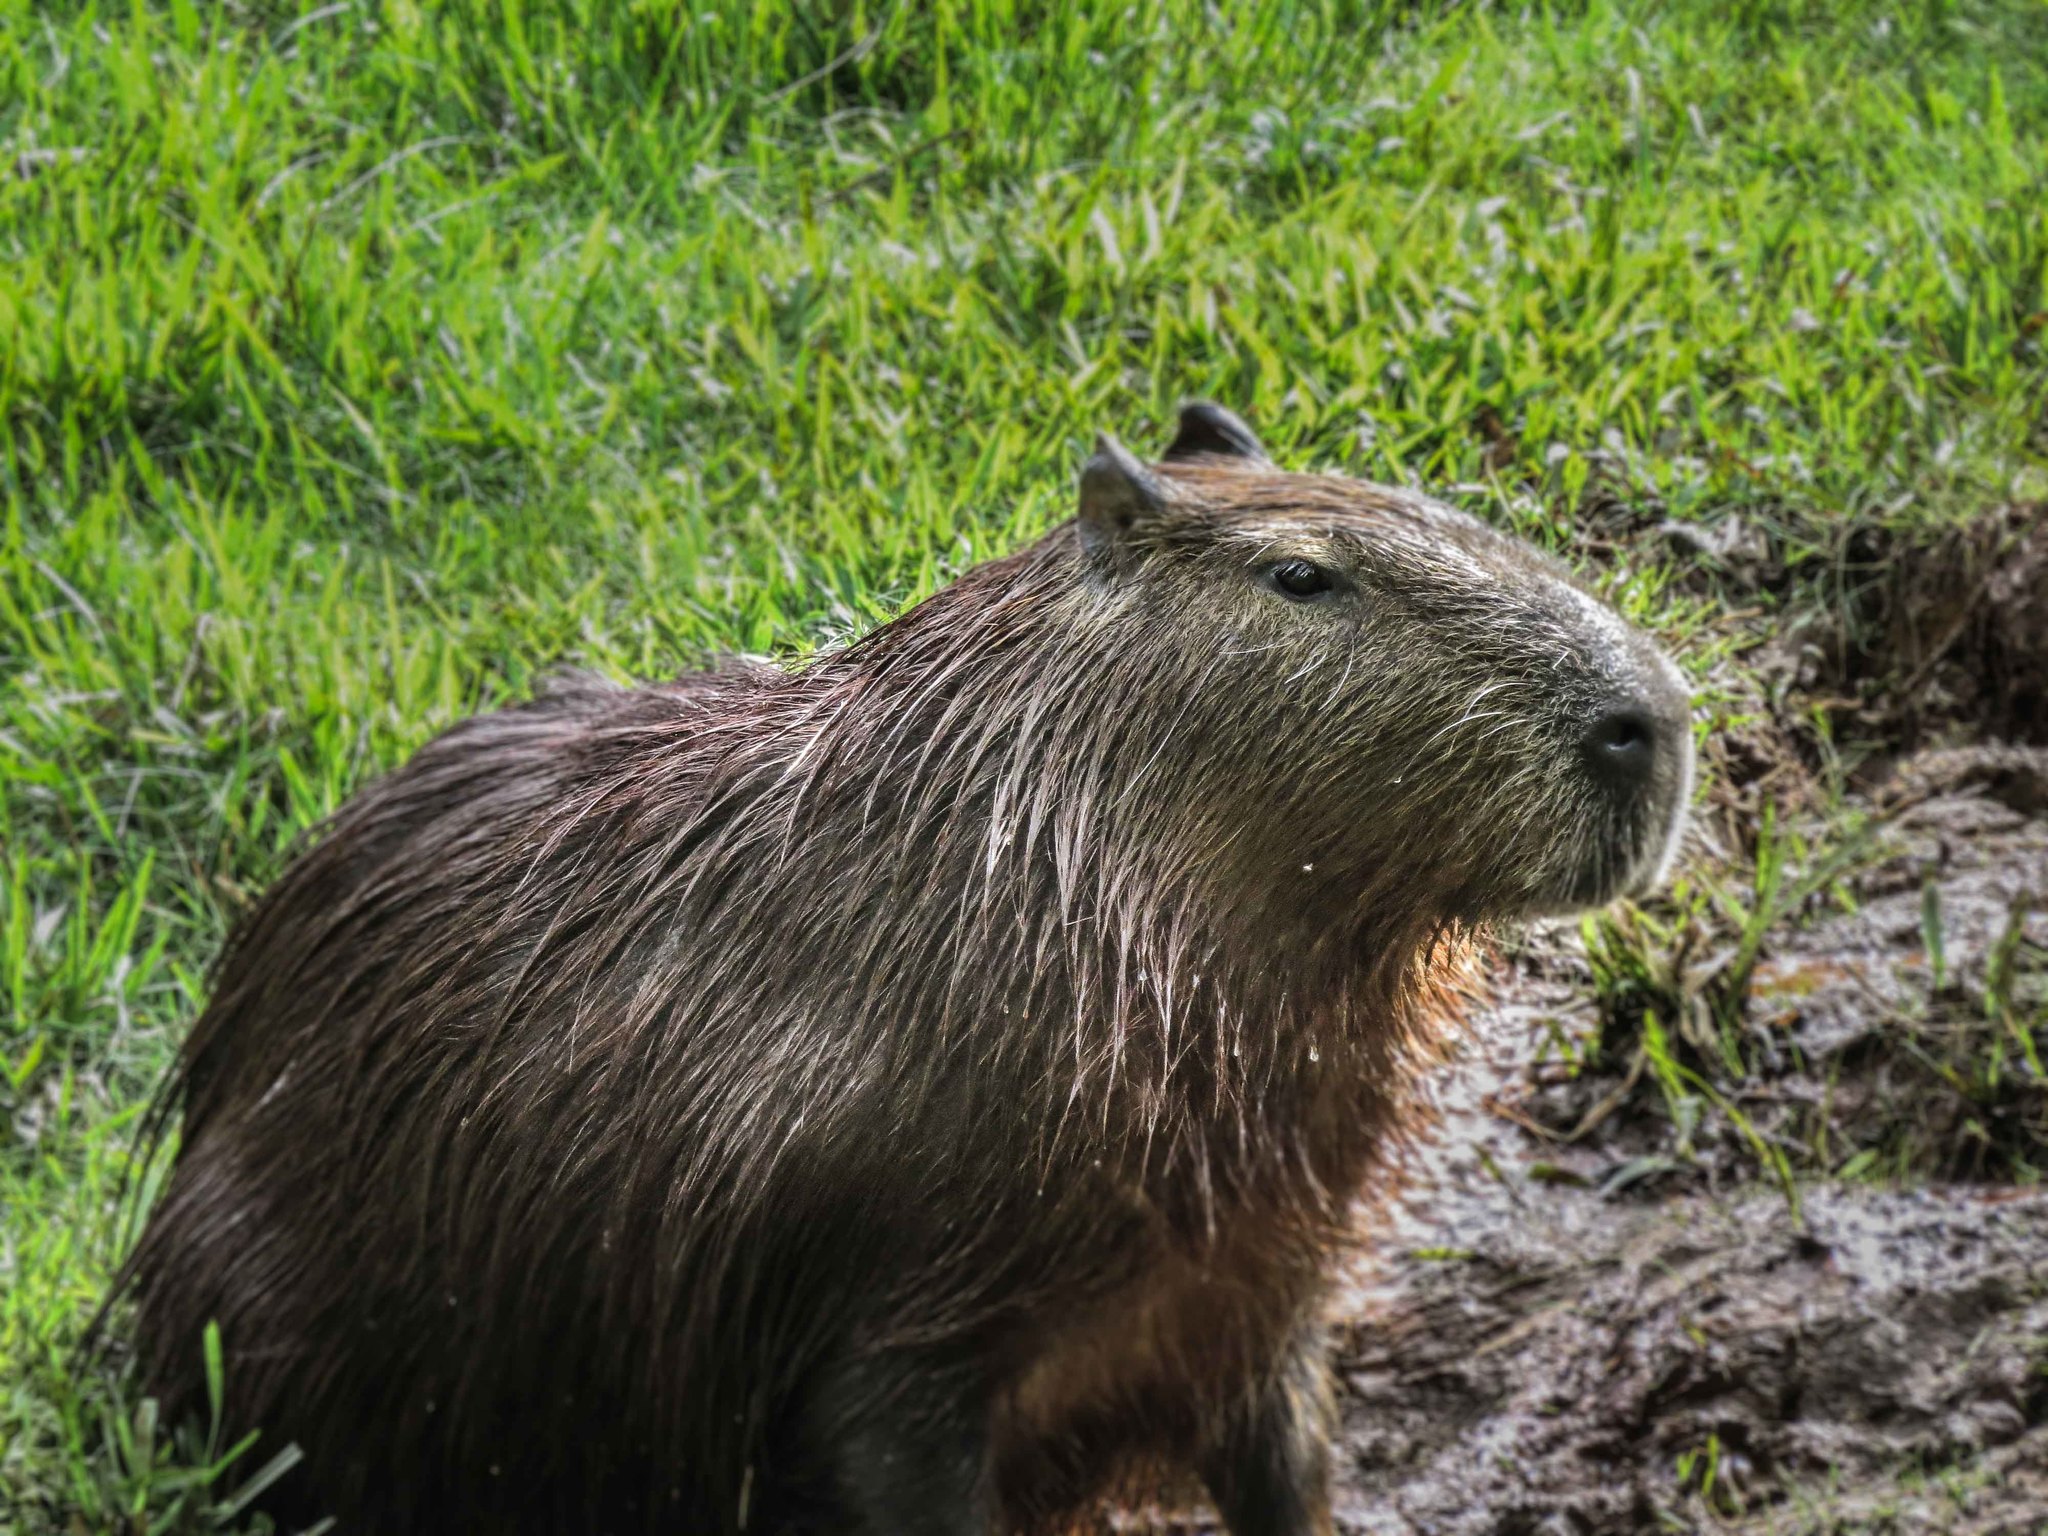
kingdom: Animalia
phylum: Chordata
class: Mammalia
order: Rodentia
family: Caviidae
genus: Hydrochoerus
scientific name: Hydrochoerus hydrochaeris
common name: Capybara
